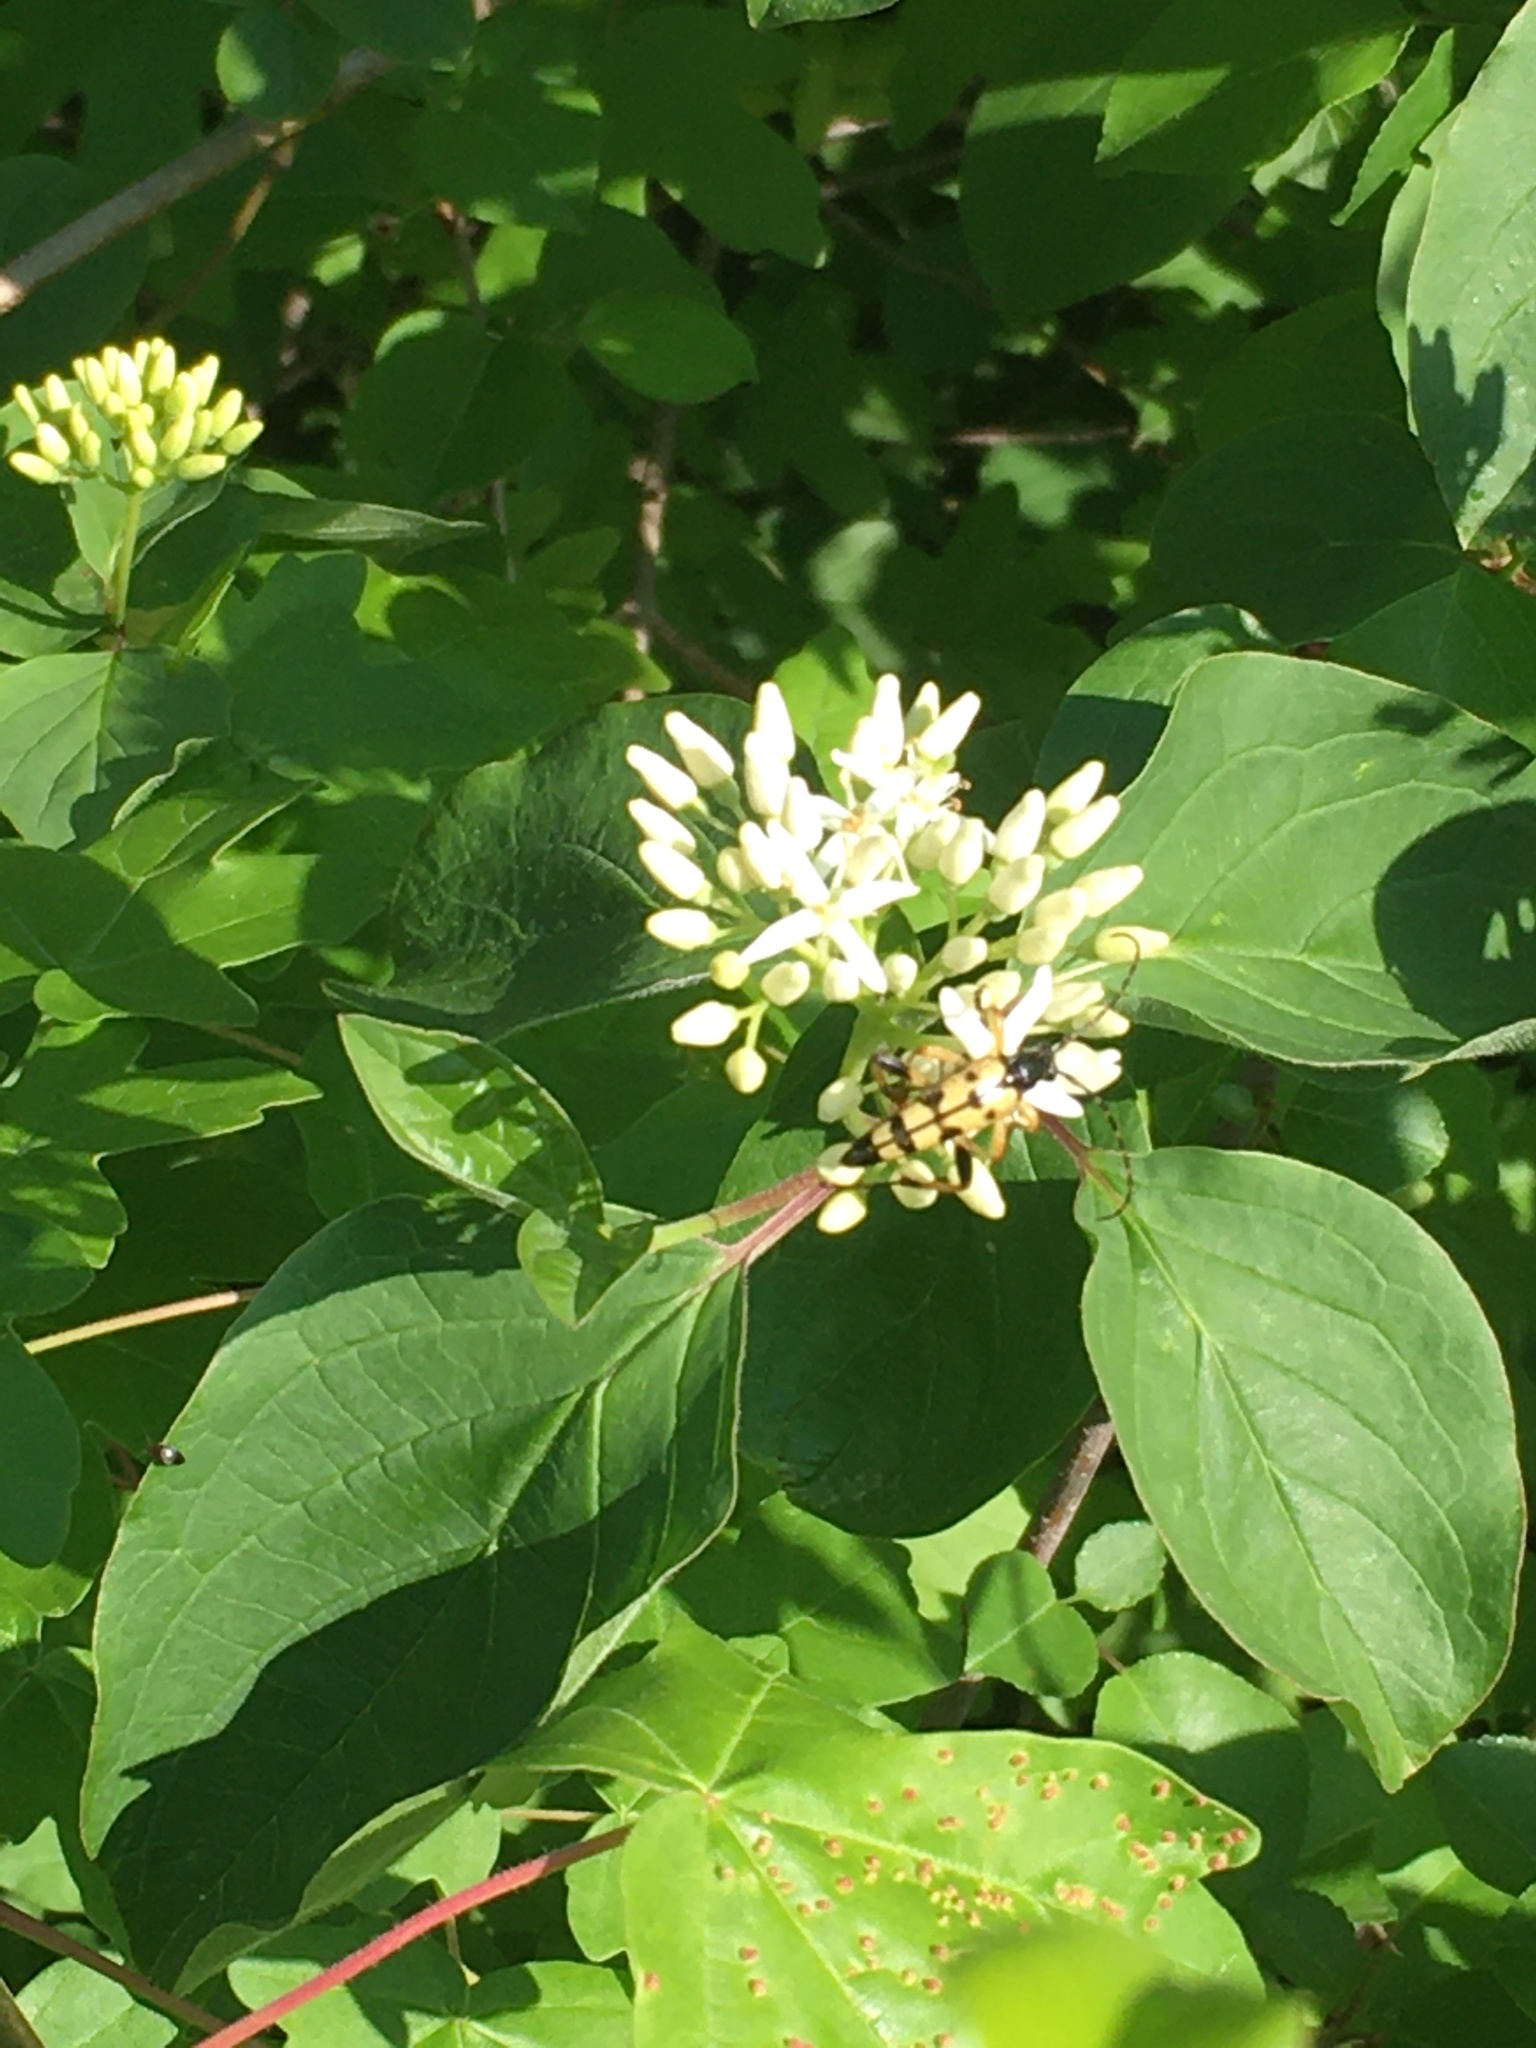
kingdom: Animalia
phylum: Arthropoda
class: Insecta
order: Coleoptera
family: Cerambycidae
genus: Rutpela
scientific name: Rutpela maculata
